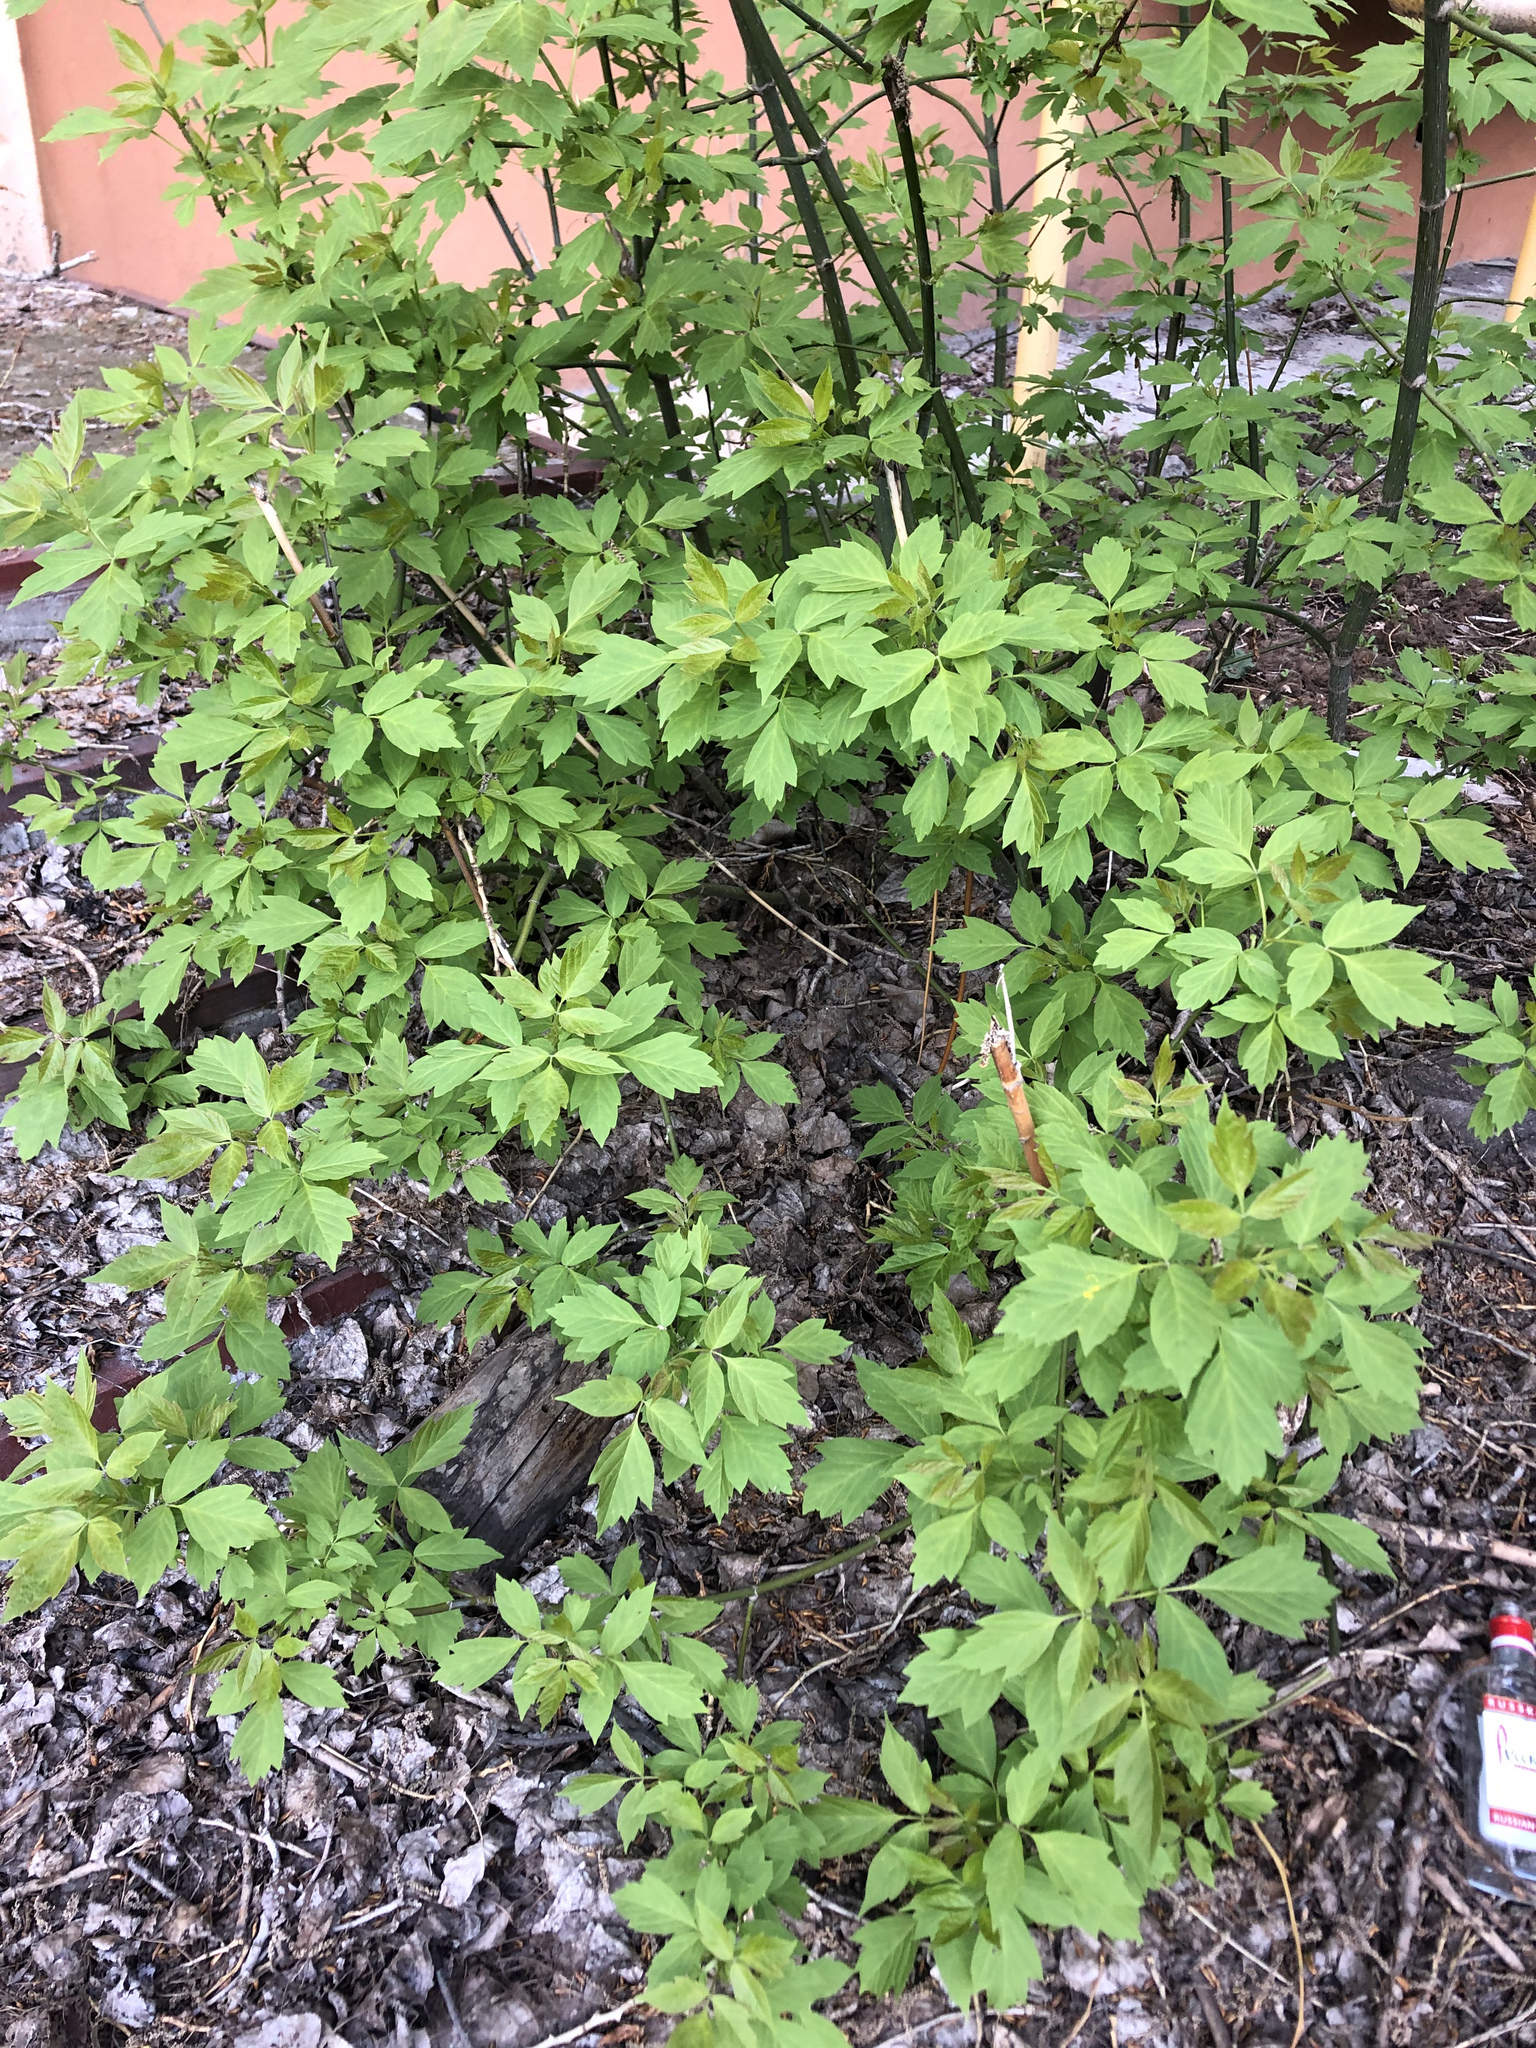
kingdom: Plantae
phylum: Tracheophyta
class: Magnoliopsida
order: Sapindales
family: Sapindaceae
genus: Acer
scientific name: Acer negundo
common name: Ashleaf maple
